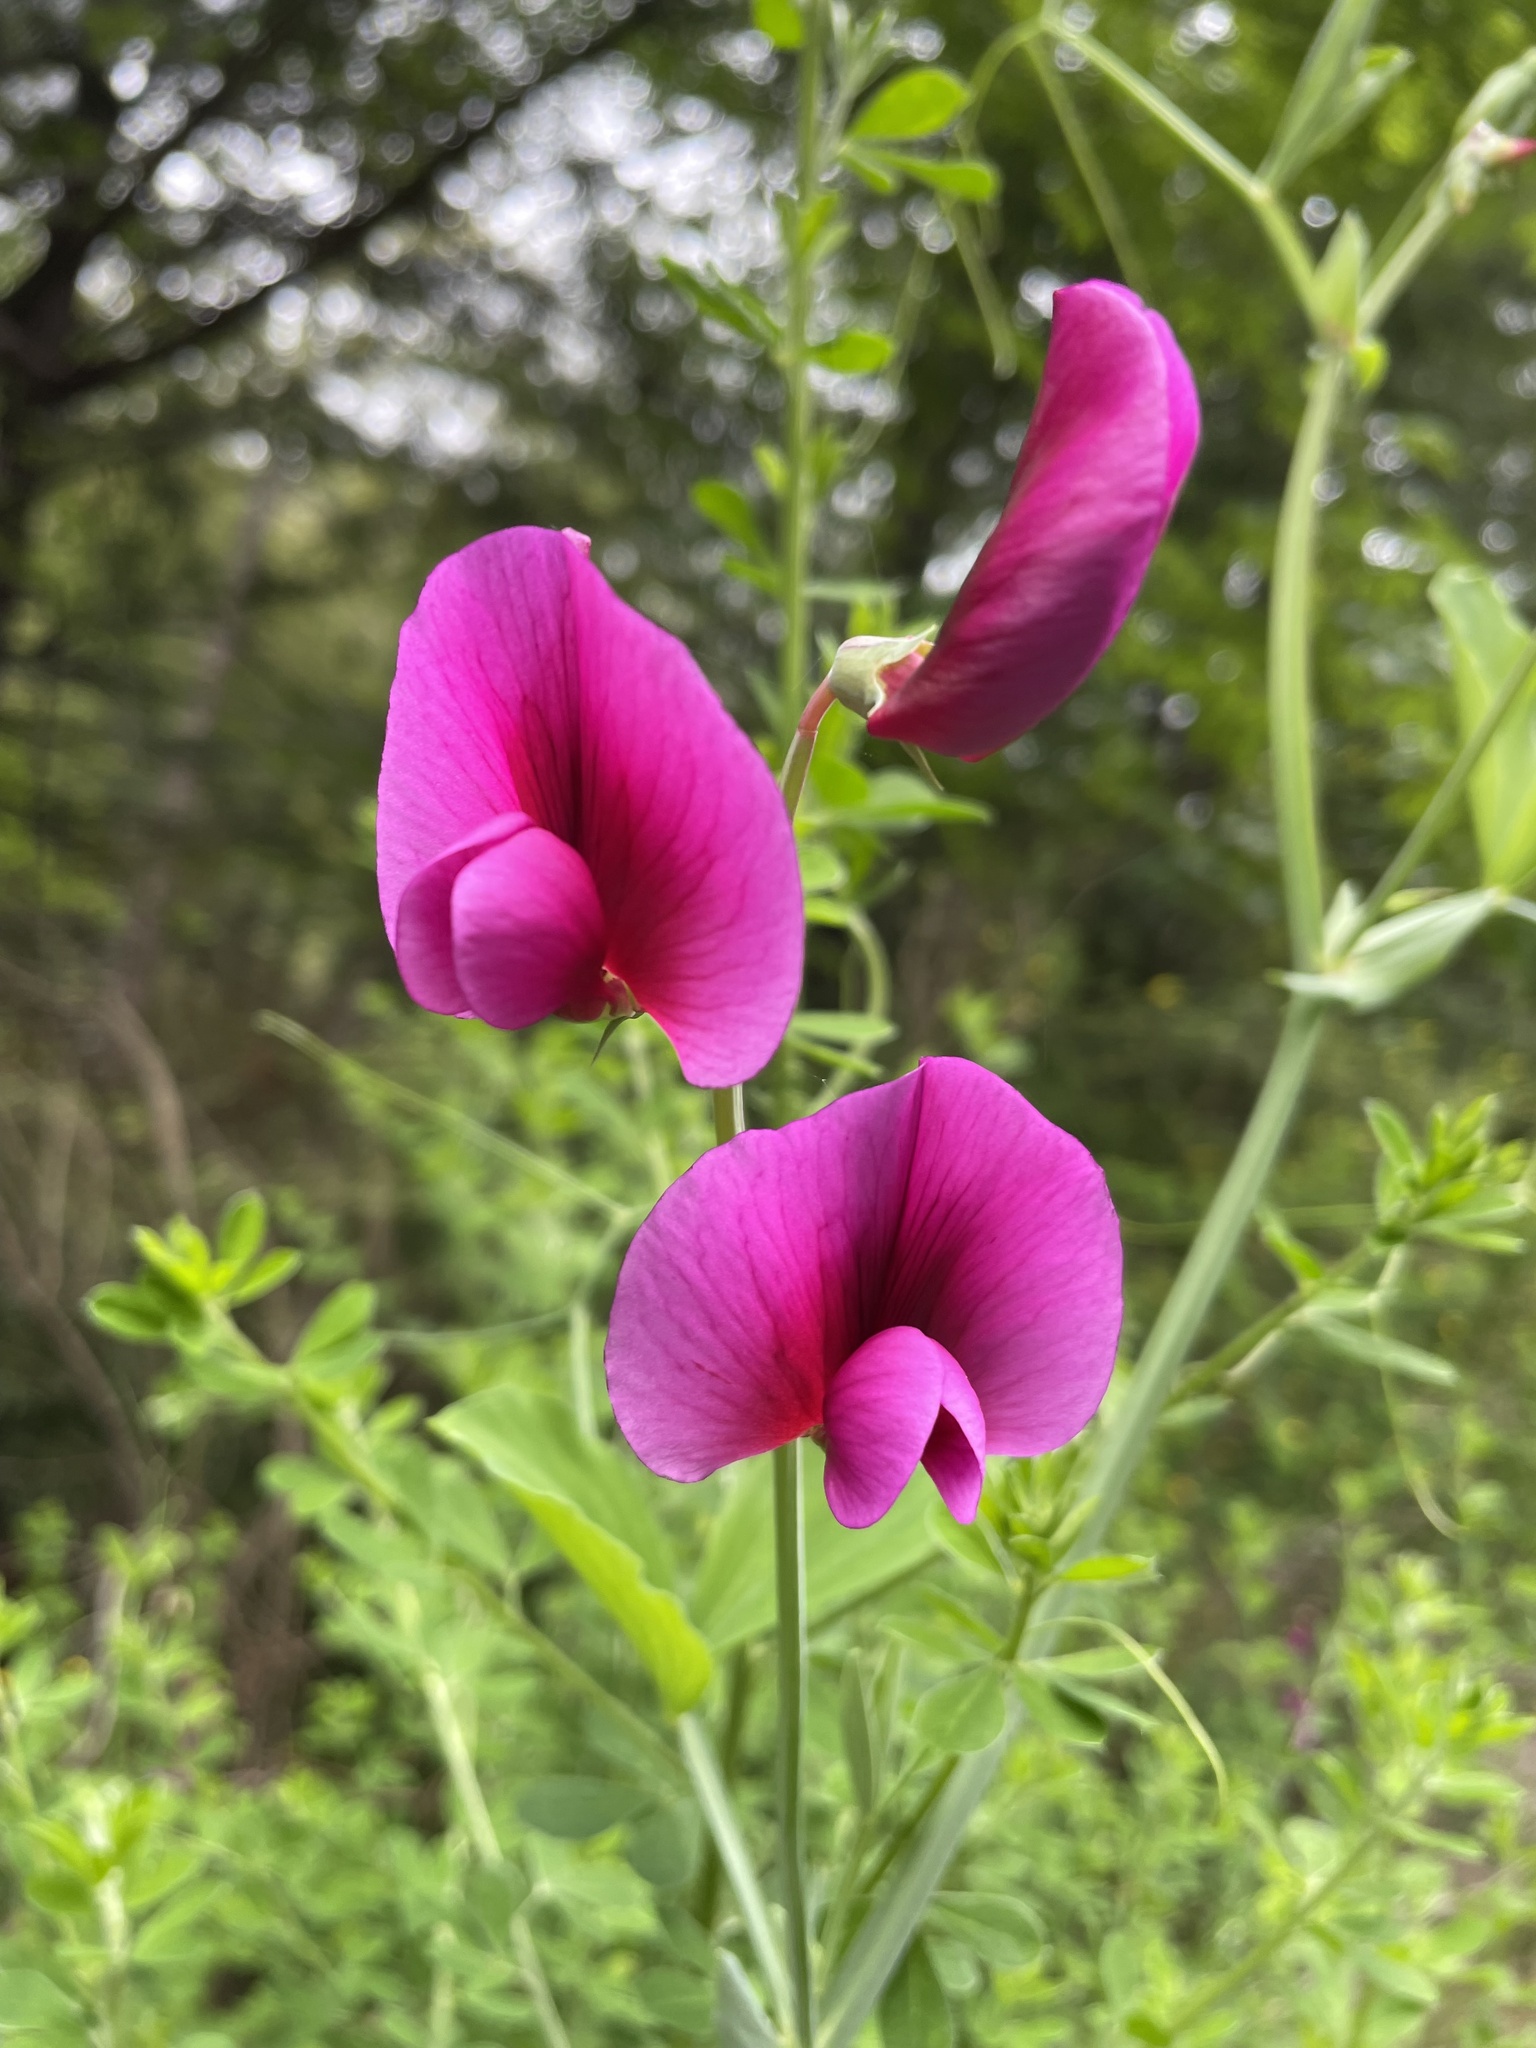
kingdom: Plantae
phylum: Tracheophyta
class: Magnoliopsida
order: Fabales
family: Fabaceae
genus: Lathyrus
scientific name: Lathyrus tingitanus
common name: Tangier pea
